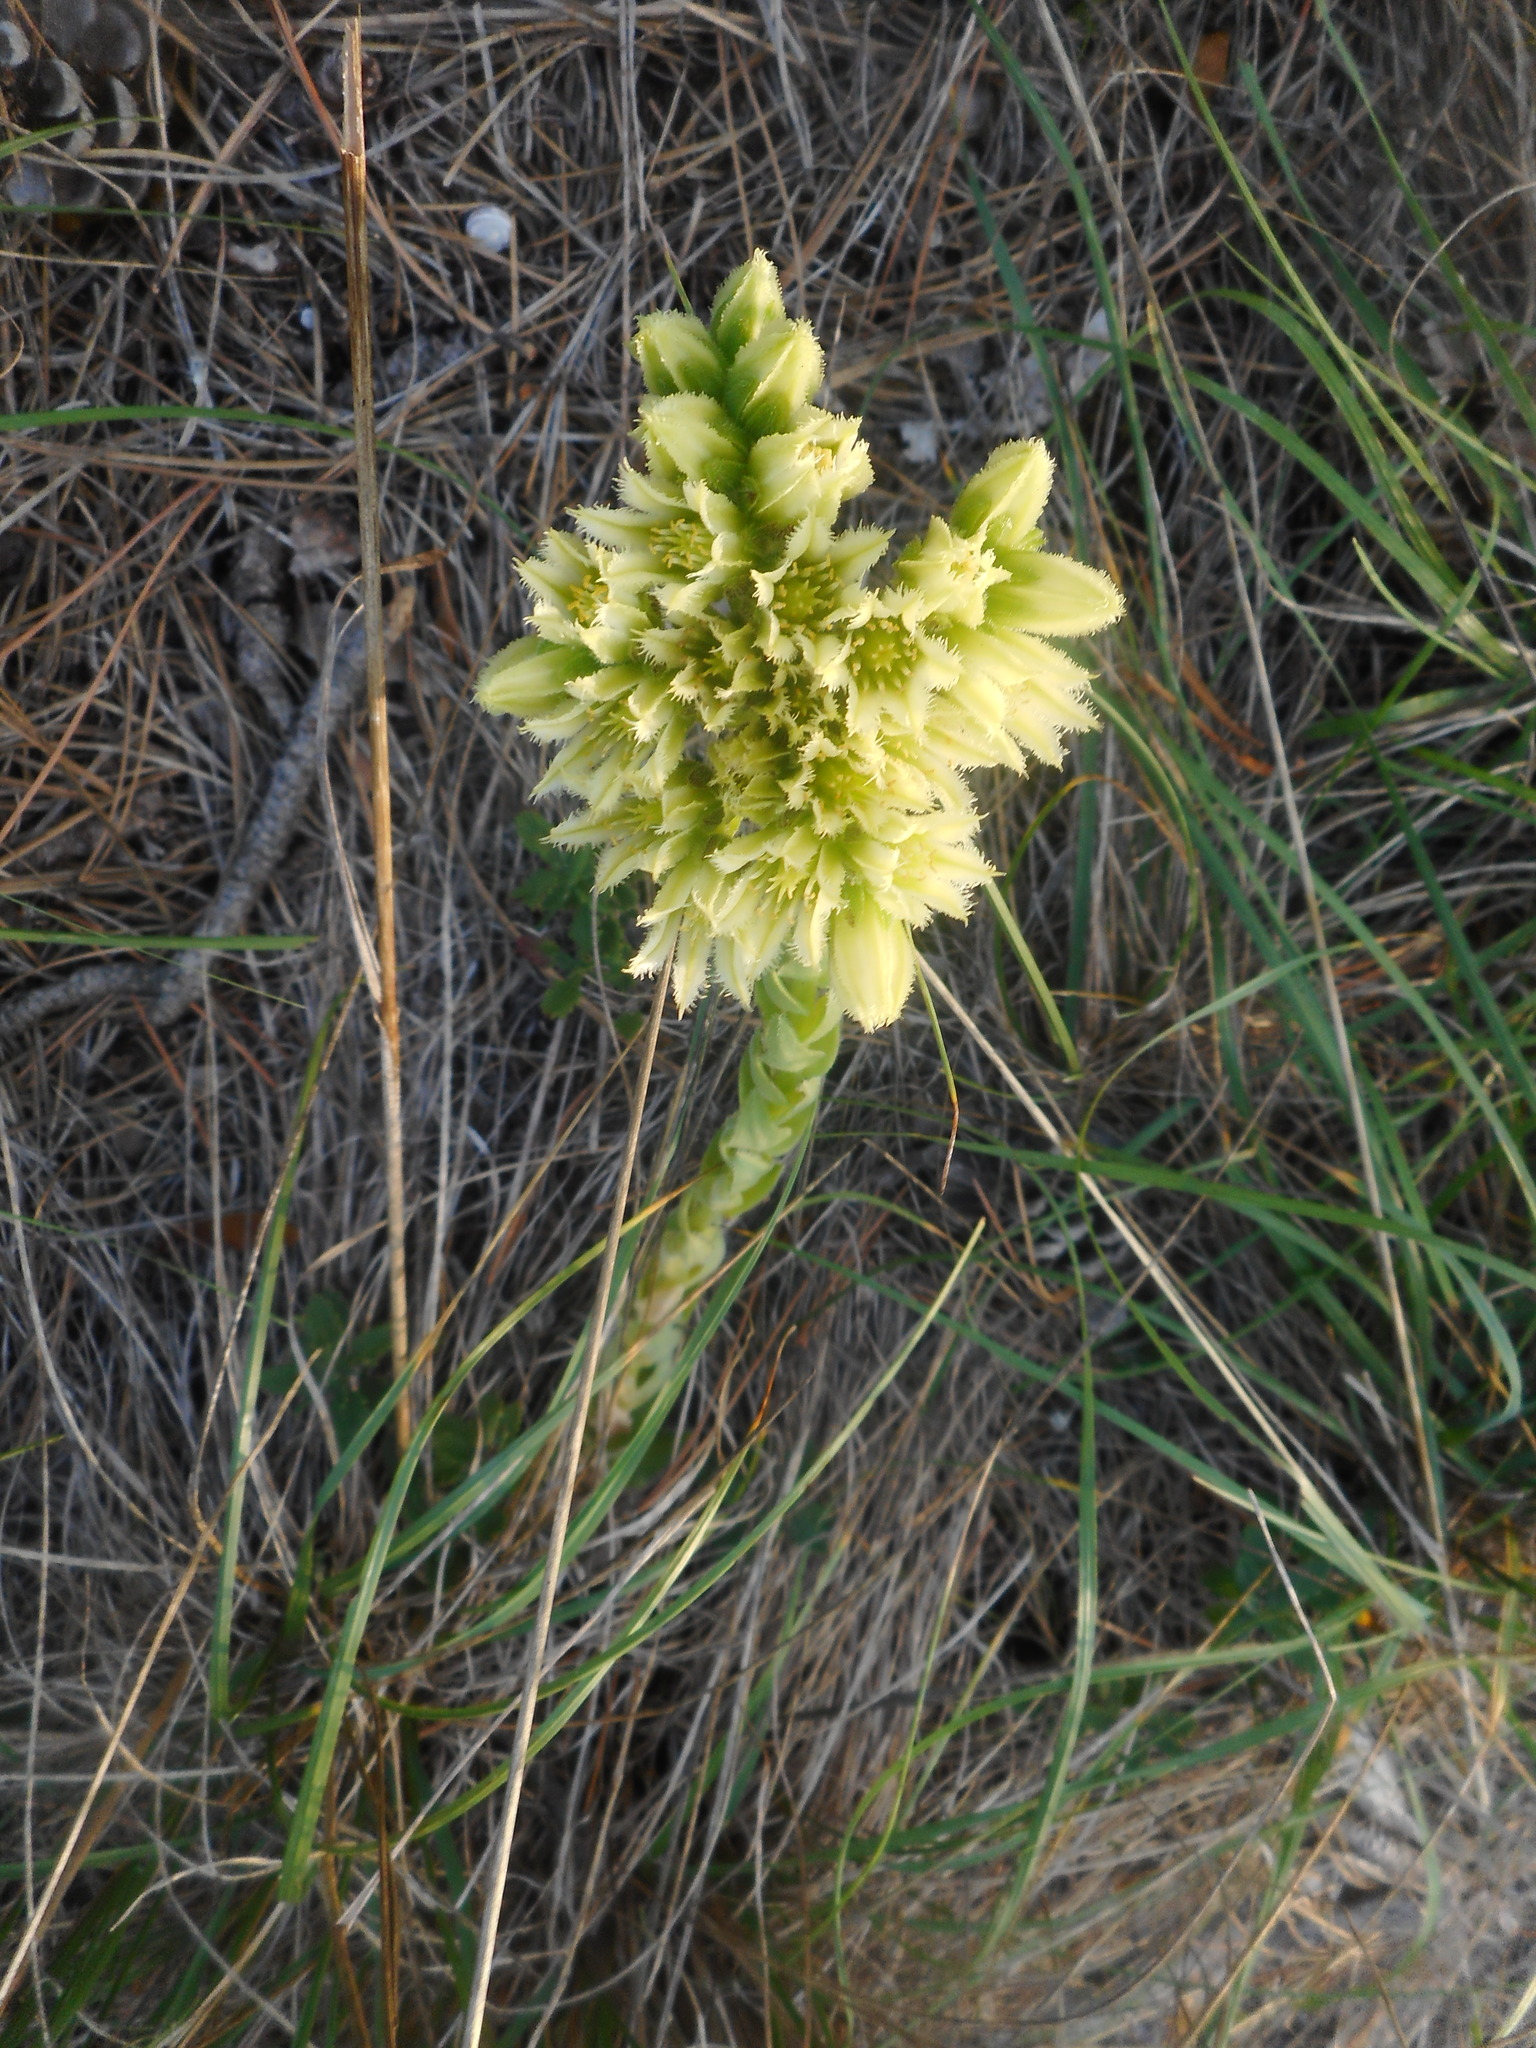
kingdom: Plantae
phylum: Tracheophyta
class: Magnoliopsida
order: Saxifragales
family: Crassulaceae
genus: Sempervivum
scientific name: Sempervivum globiferum
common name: Rolling hen-and-chicks
